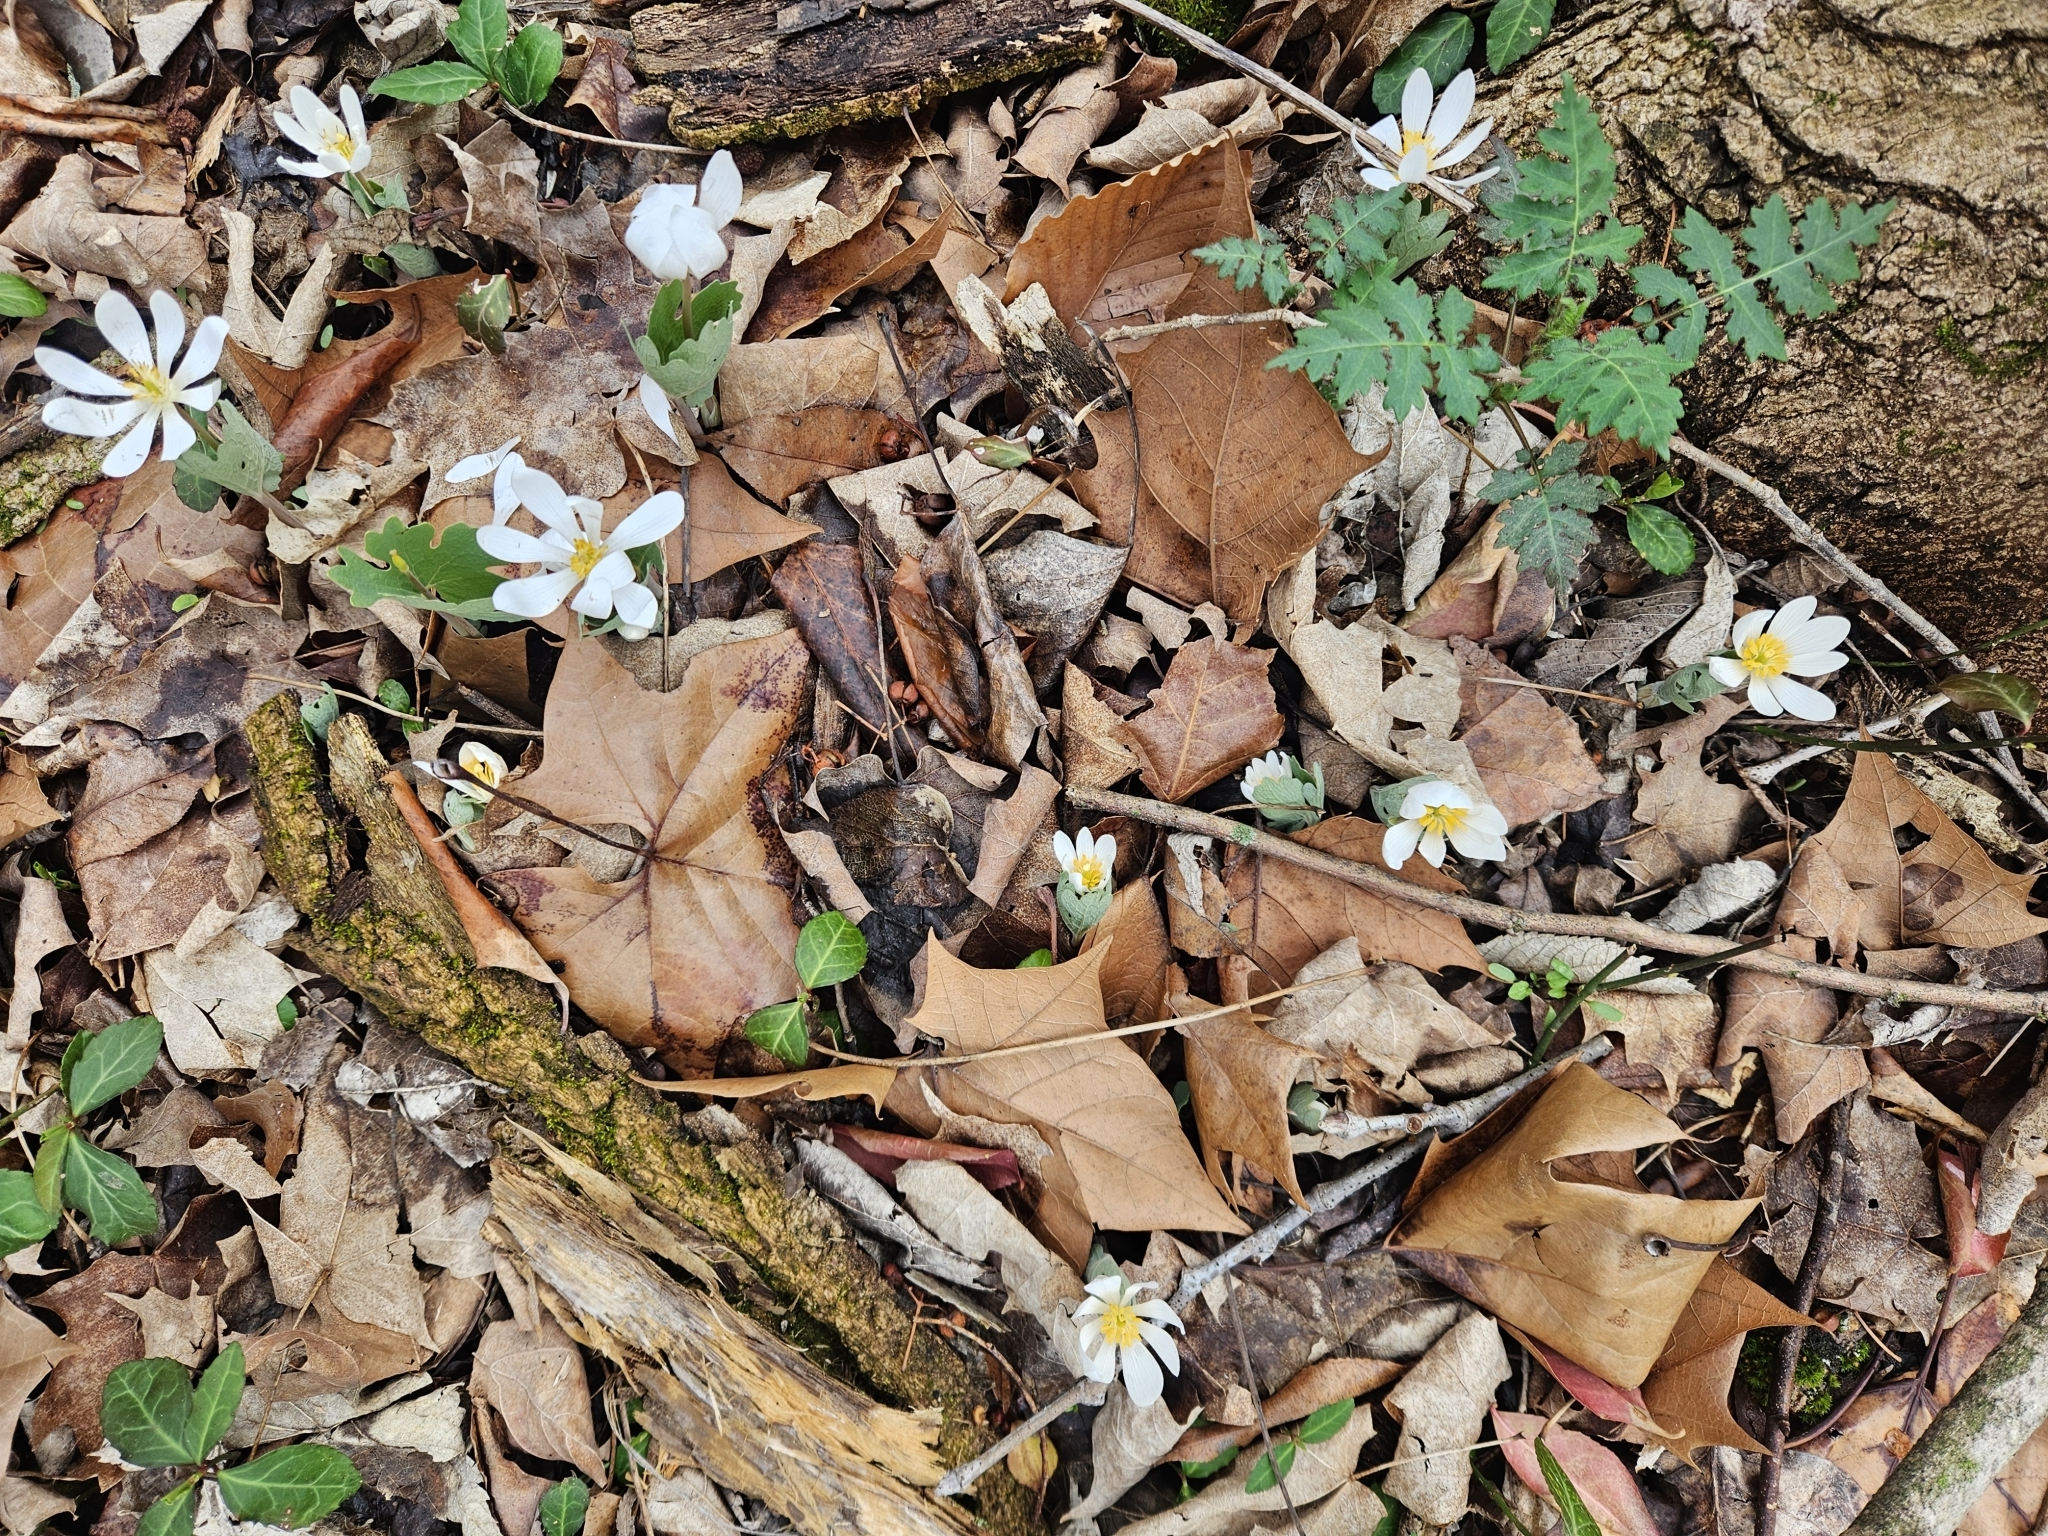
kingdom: Plantae
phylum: Tracheophyta
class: Magnoliopsida
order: Ranunculales
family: Papaveraceae
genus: Sanguinaria
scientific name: Sanguinaria canadensis
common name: Bloodroot
